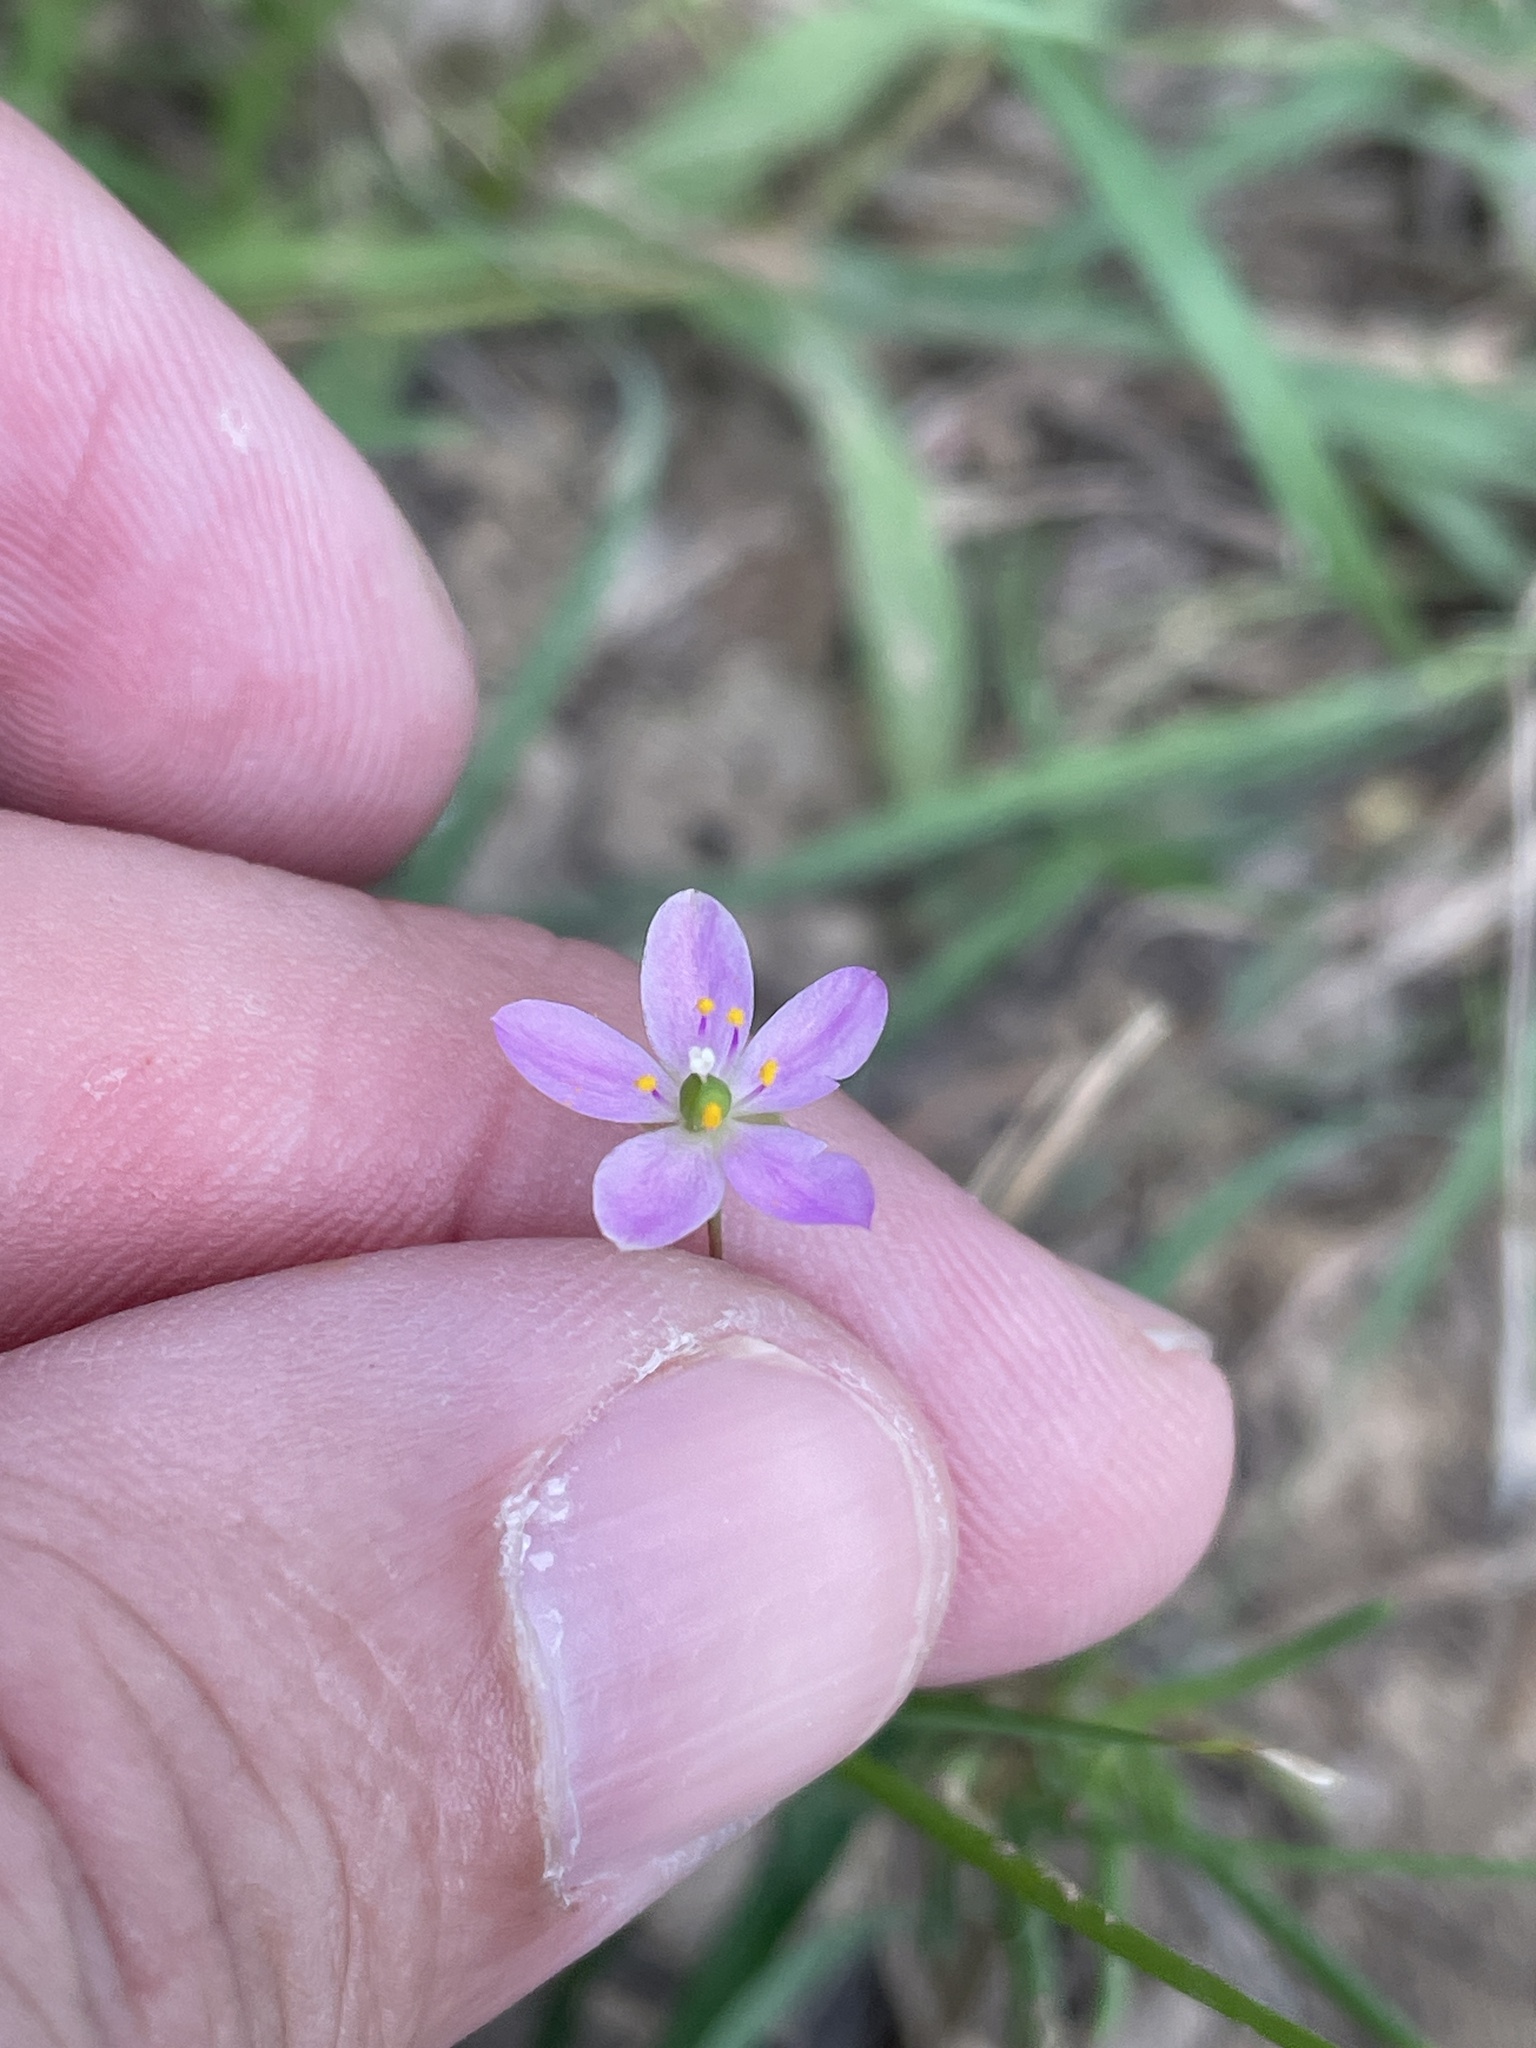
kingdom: Plantae
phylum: Tracheophyta
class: Magnoliopsida
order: Caryophyllales
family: Montiaceae
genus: Phemeranthus
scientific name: Phemeranthus parviflorus
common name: Sunbright
